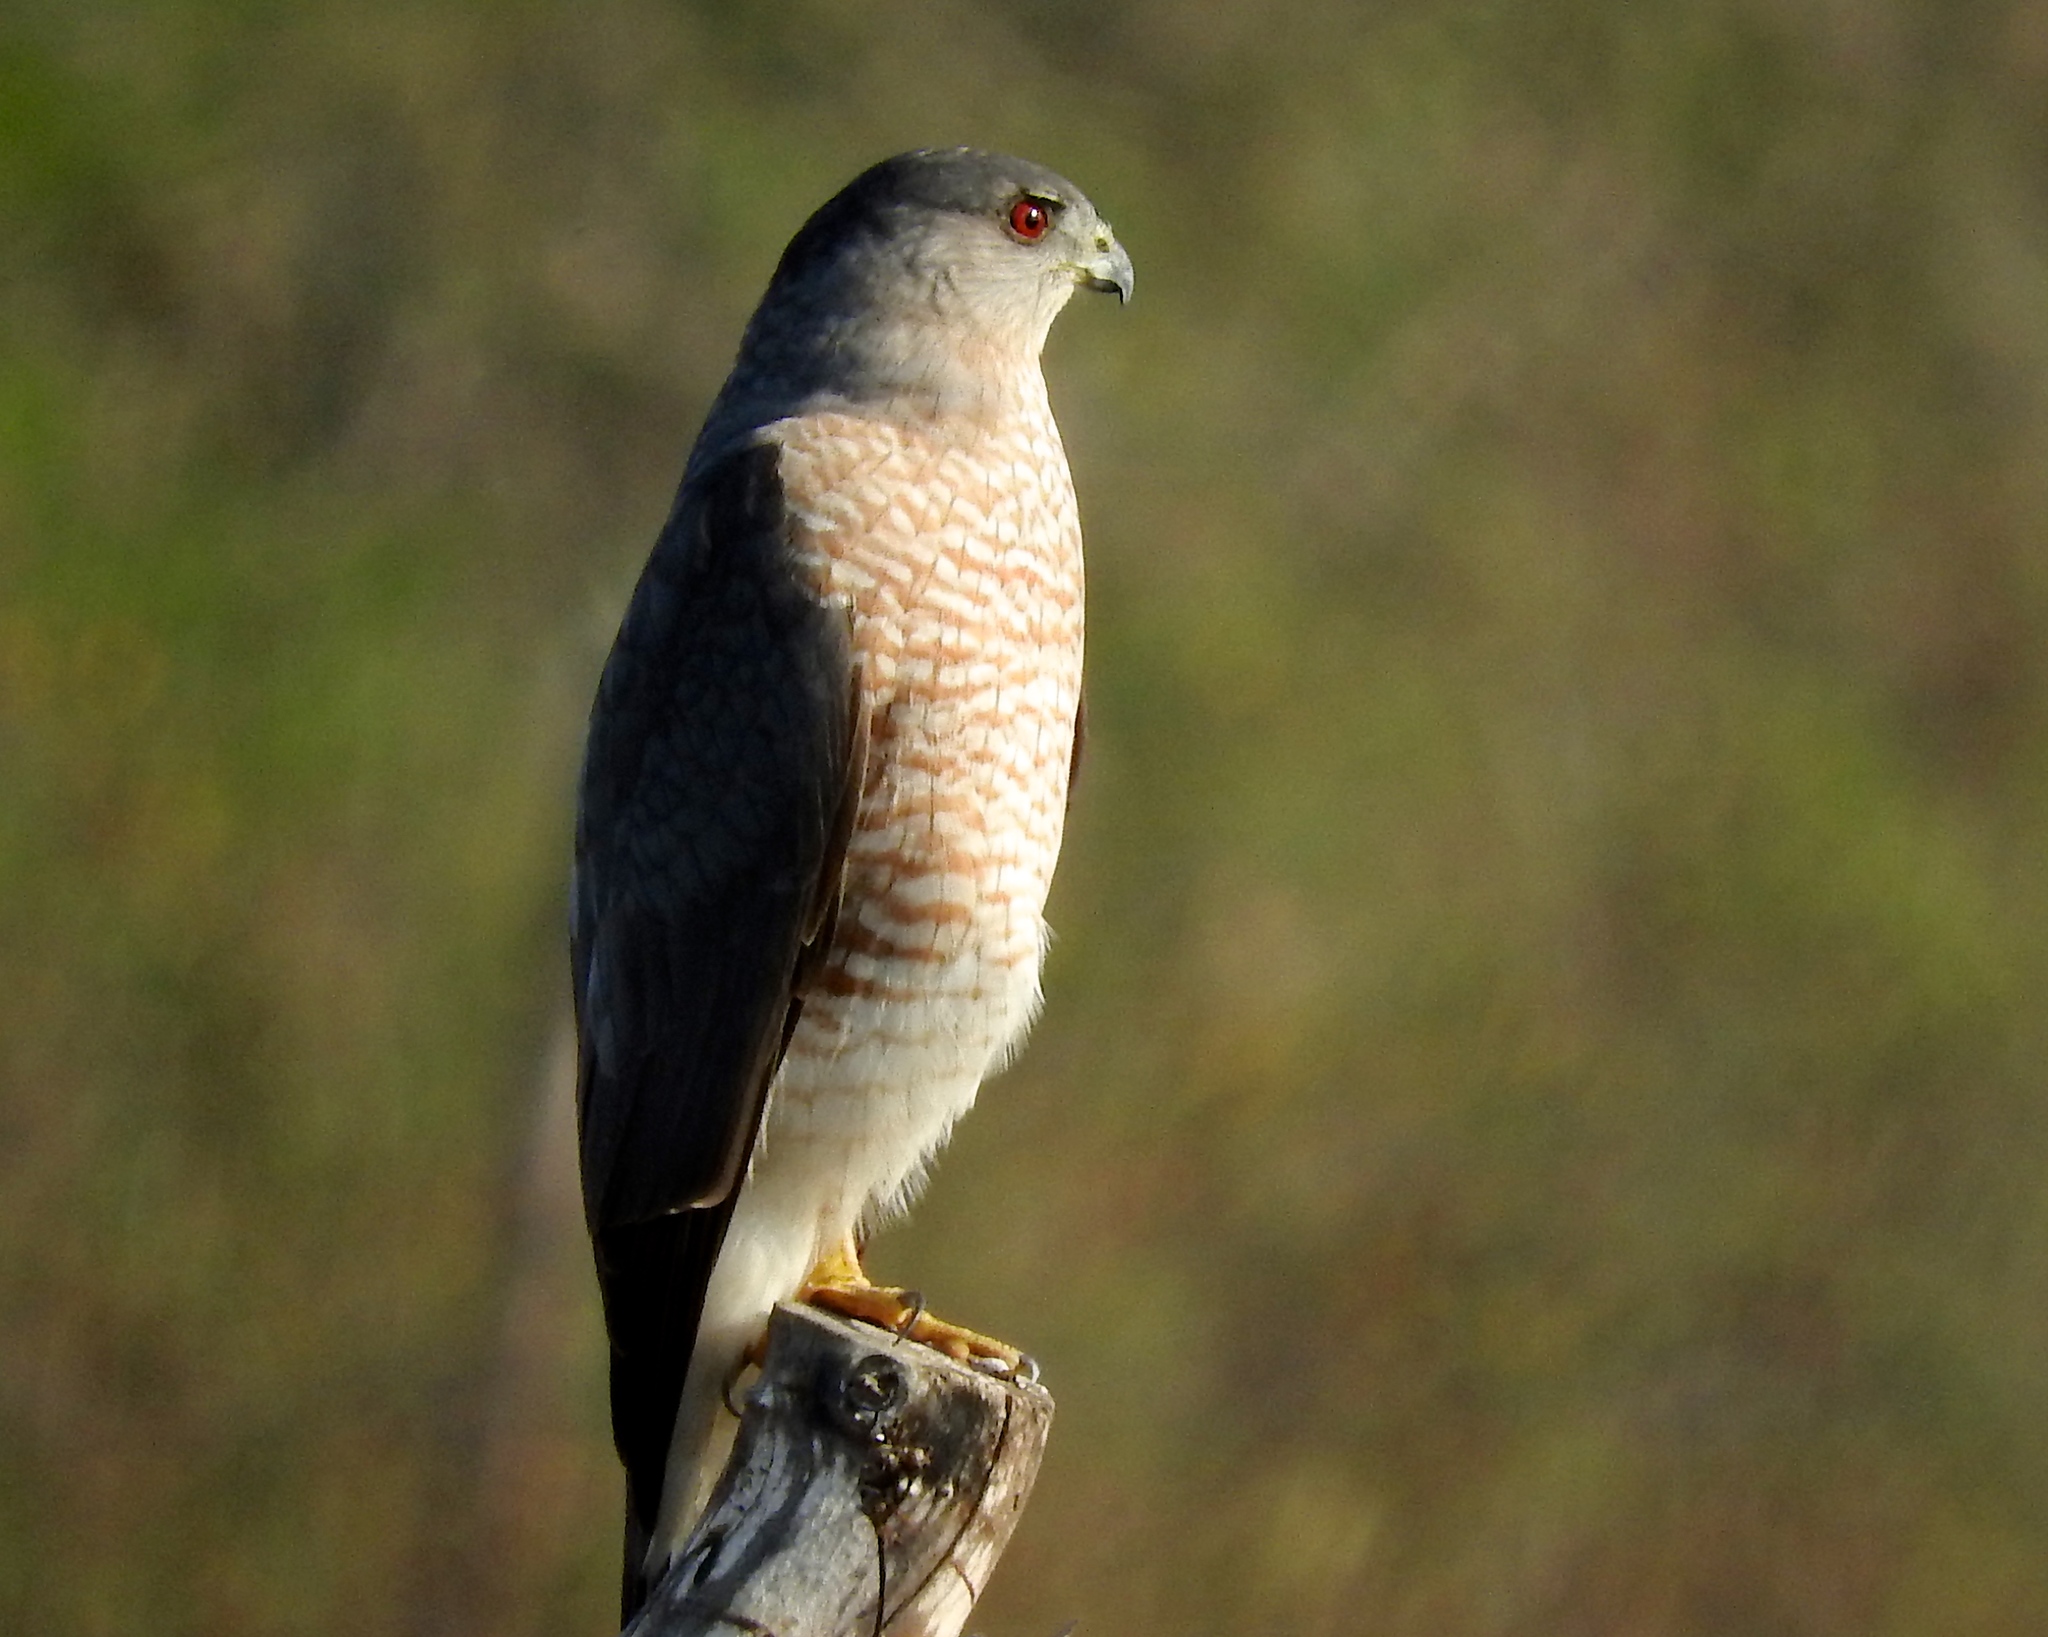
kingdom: Animalia
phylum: Chordata
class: Aves
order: Accipitriformes
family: Accipitridae
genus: Accipiter
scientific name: Accipiter cooperii
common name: Cooper's hawk
